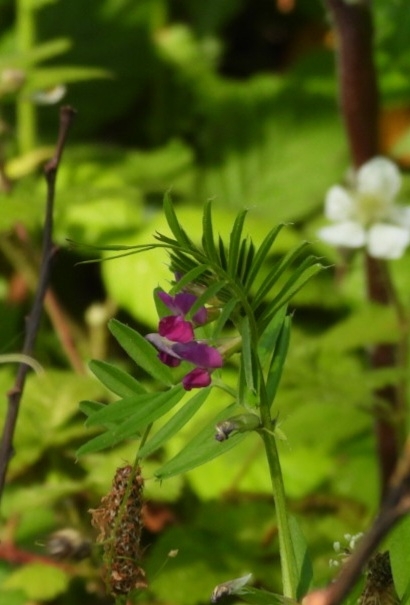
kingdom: Plantae
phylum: Tracheophyta
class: Magnoliopsida
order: Fabales
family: Fabaceae
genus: Vicia
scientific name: Vicia sativa
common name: Garden vetch
